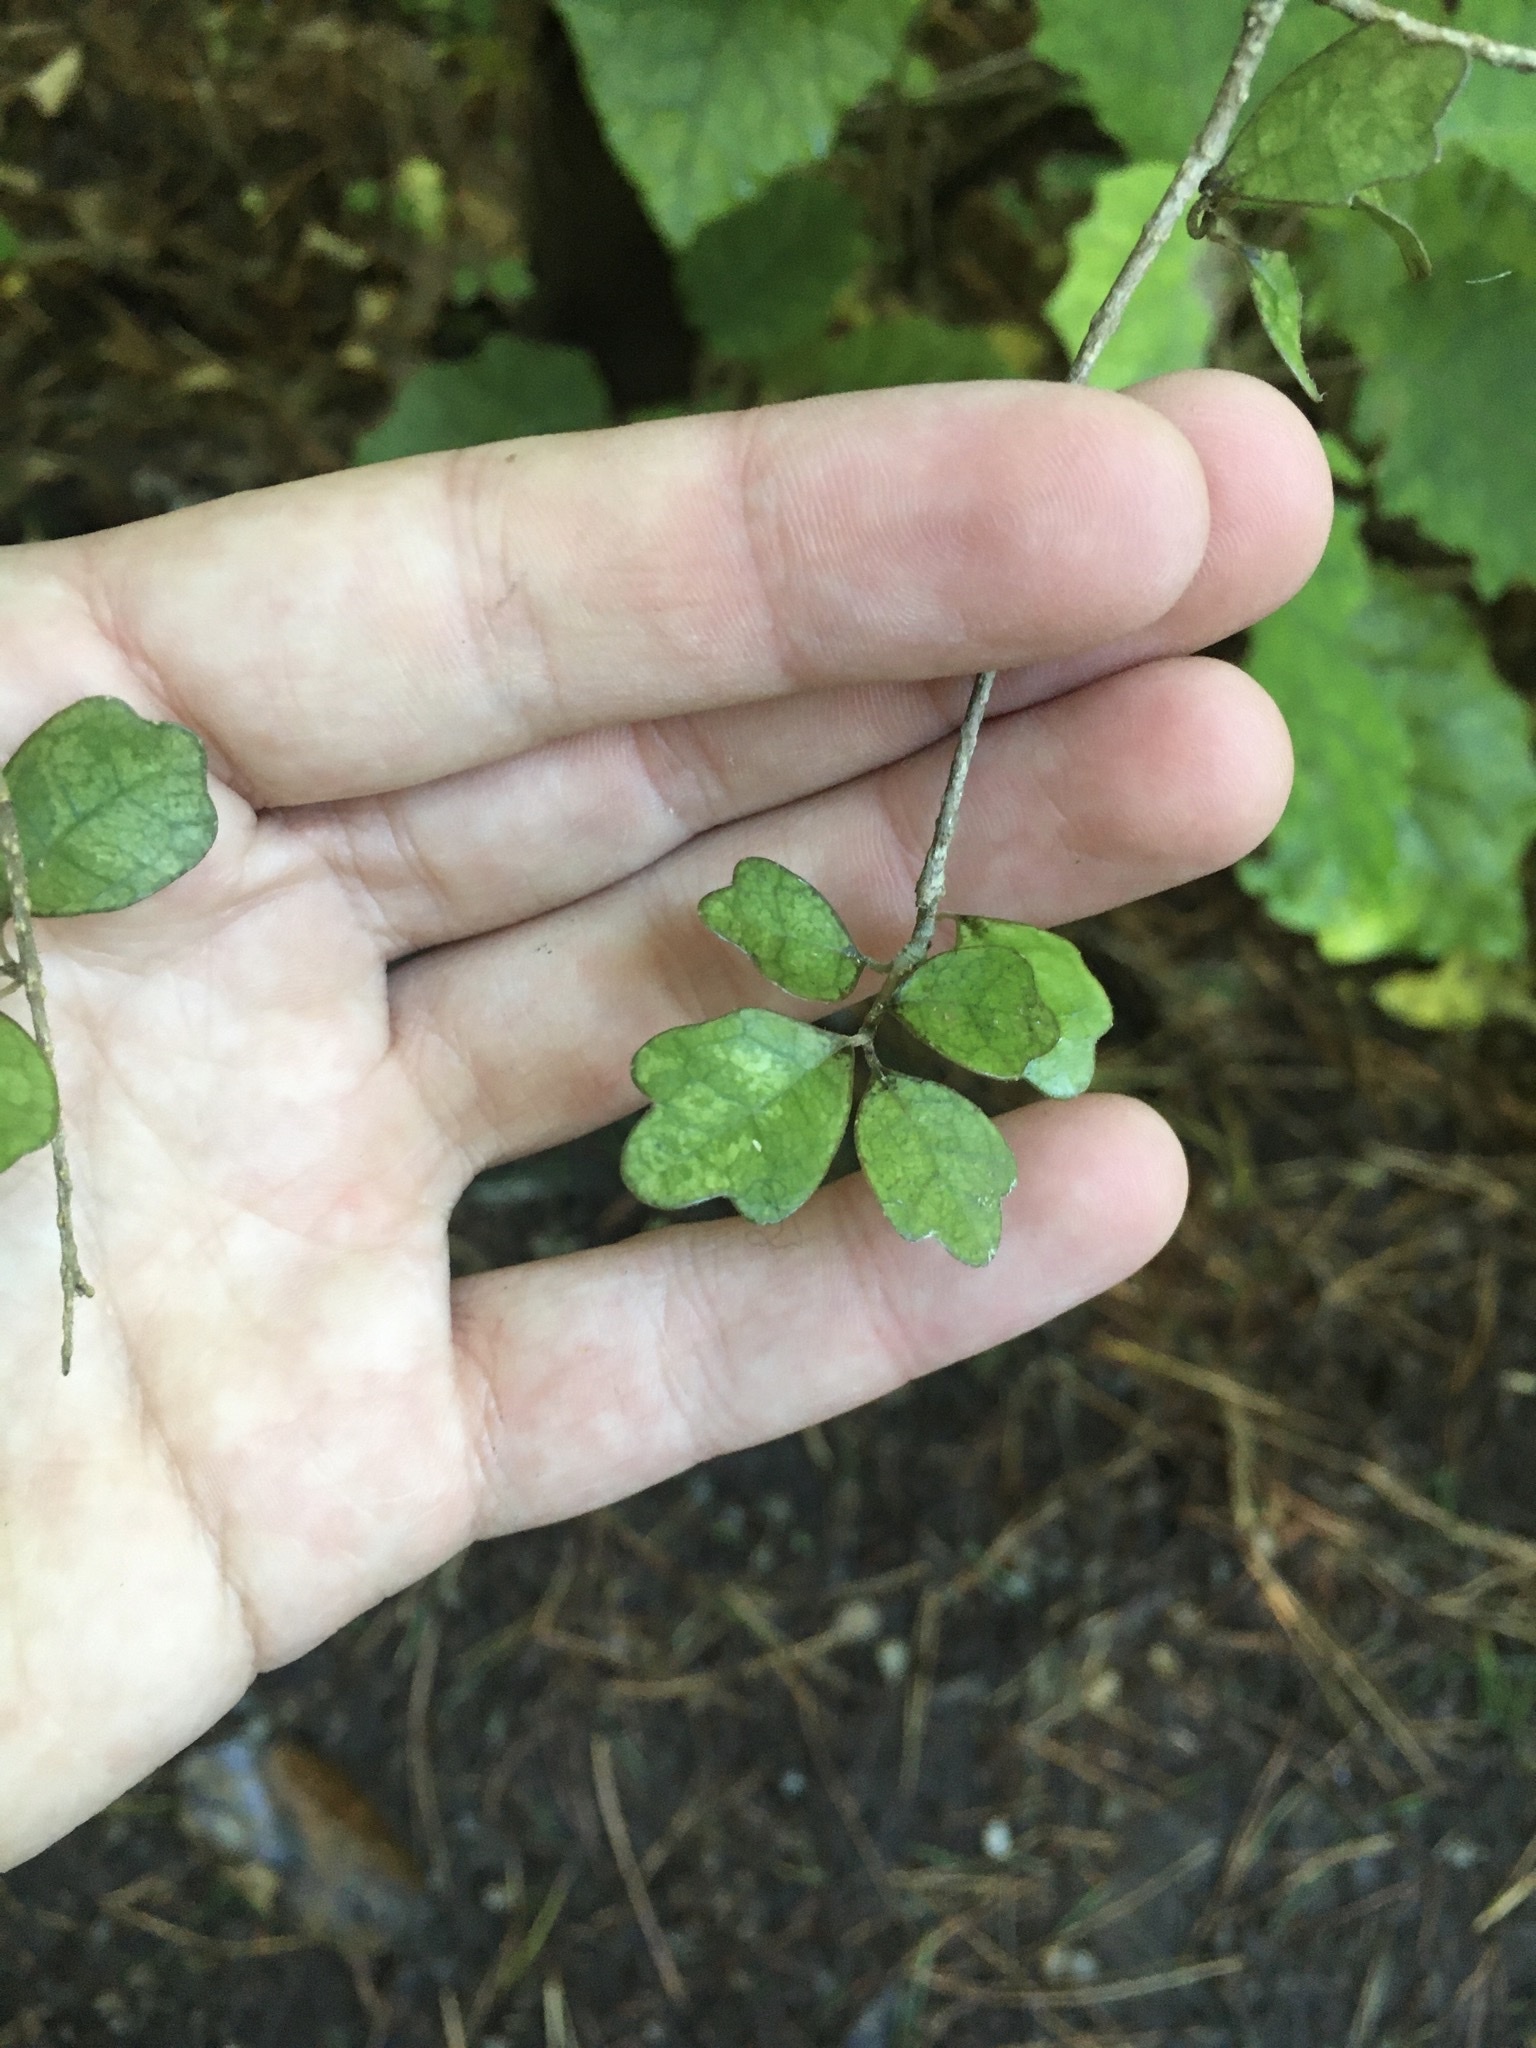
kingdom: Plantae
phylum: Tracheophyta
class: Magnoliopsida
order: Apiales
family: Pennantiaceae
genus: Pennantia
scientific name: Pennantia corymbosa
